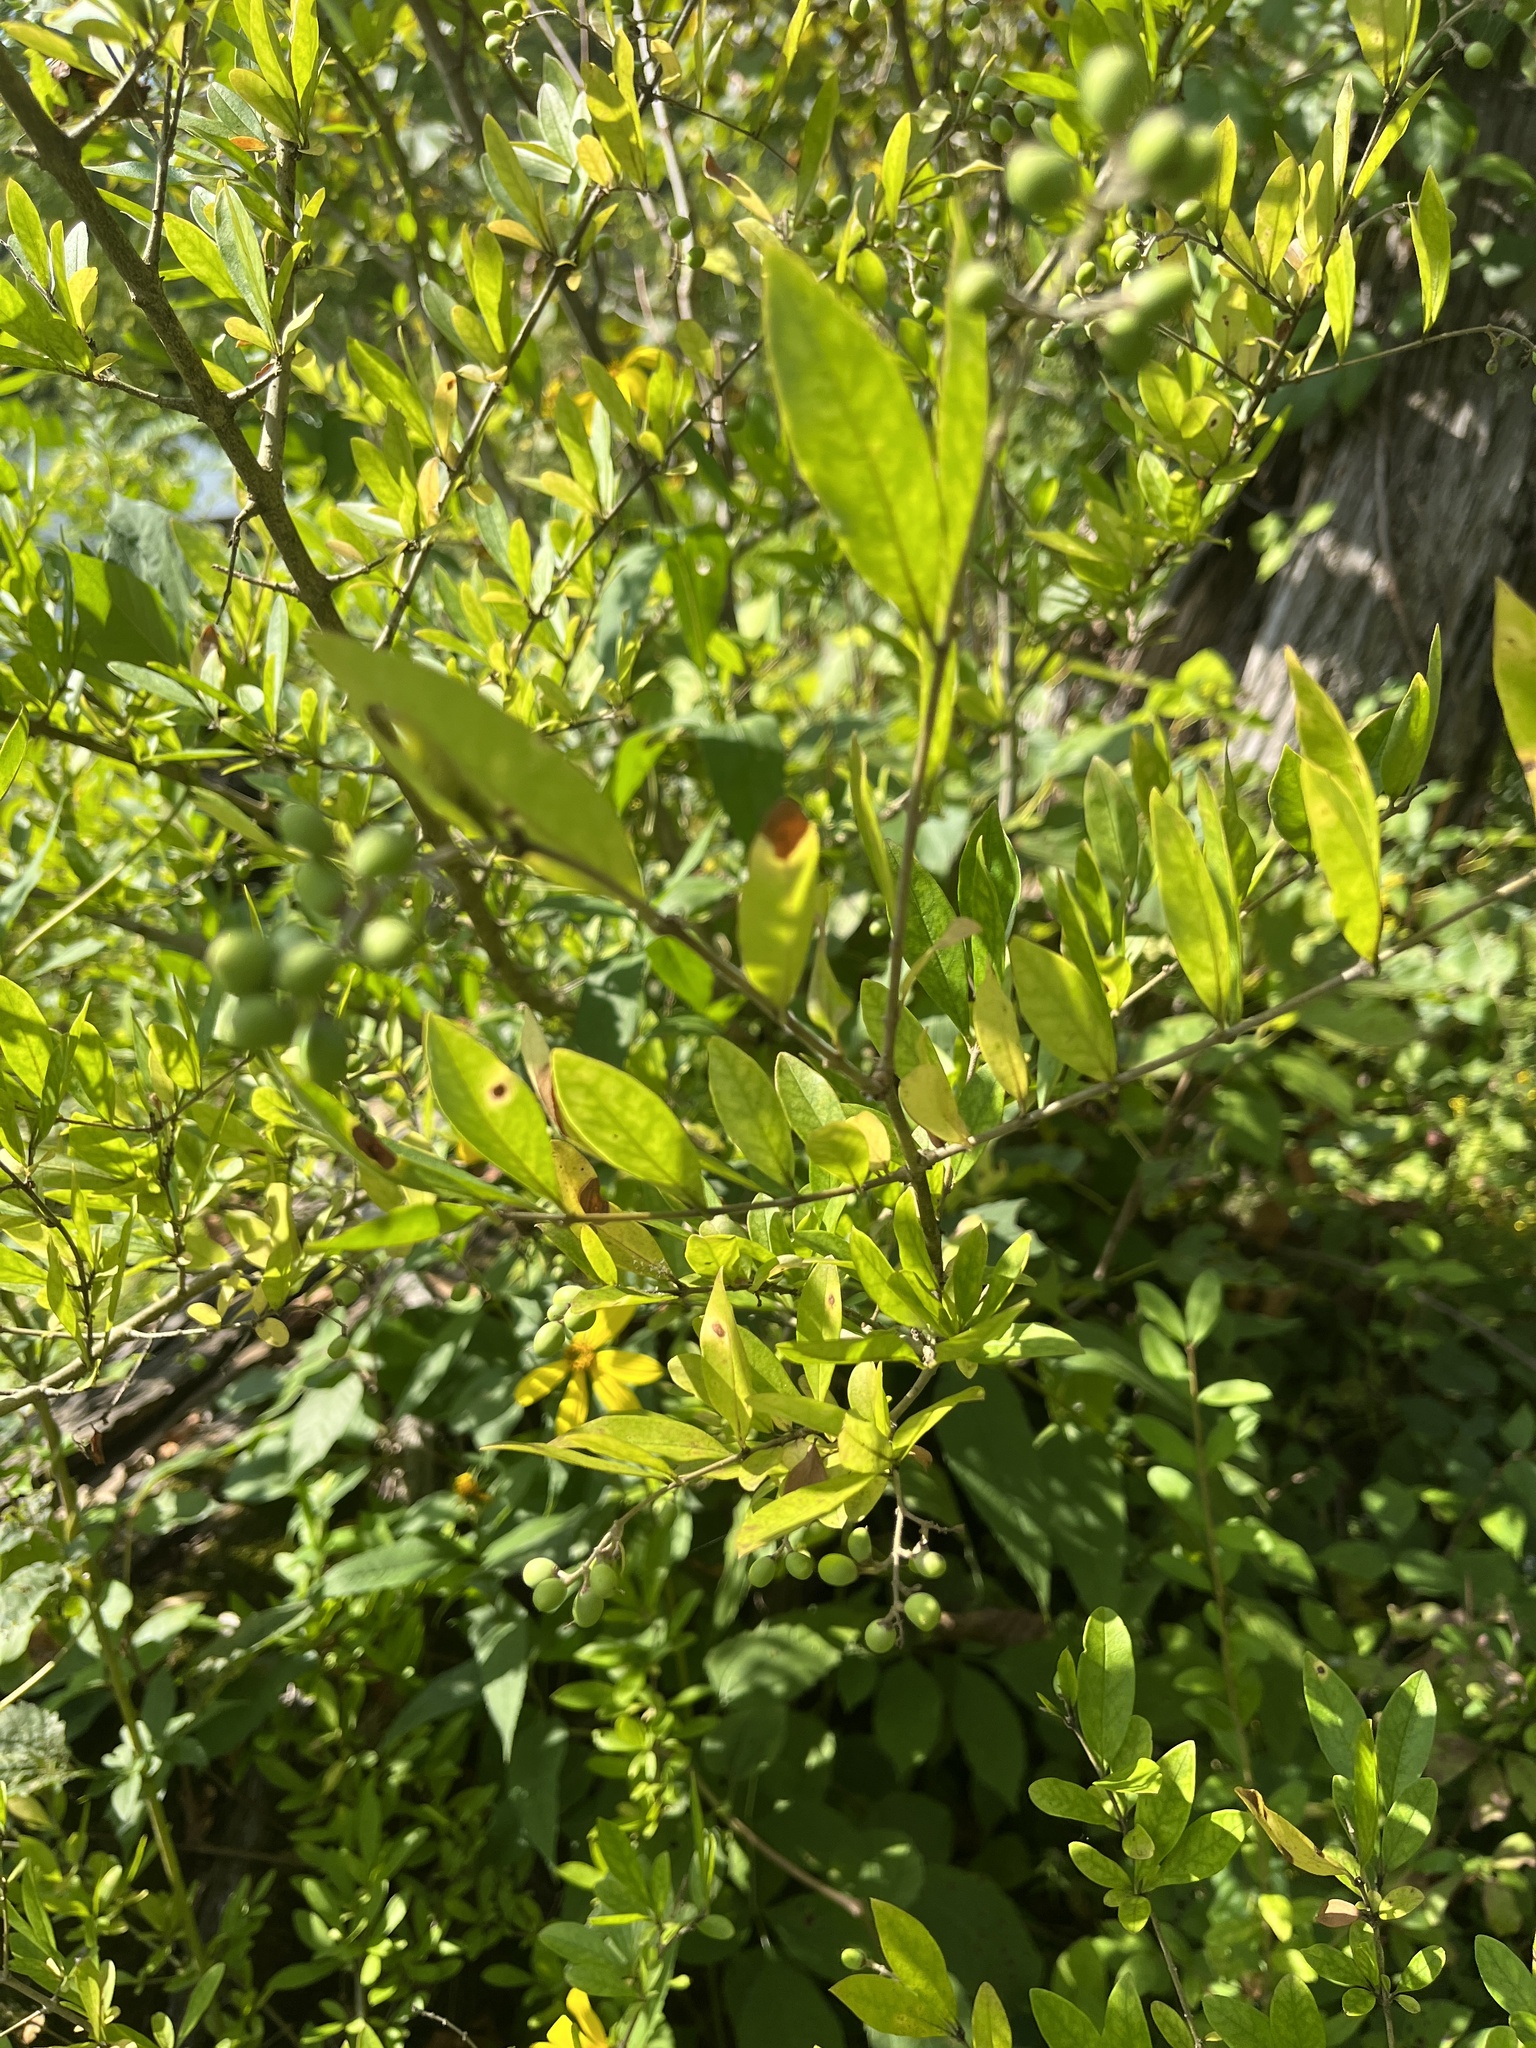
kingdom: Plantae
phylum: Tracheophyta
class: Magnoliopsida
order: Lamiales
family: Oleaceae
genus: Ligustrum
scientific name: Ligustrum obtusifolium
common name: Border privet
